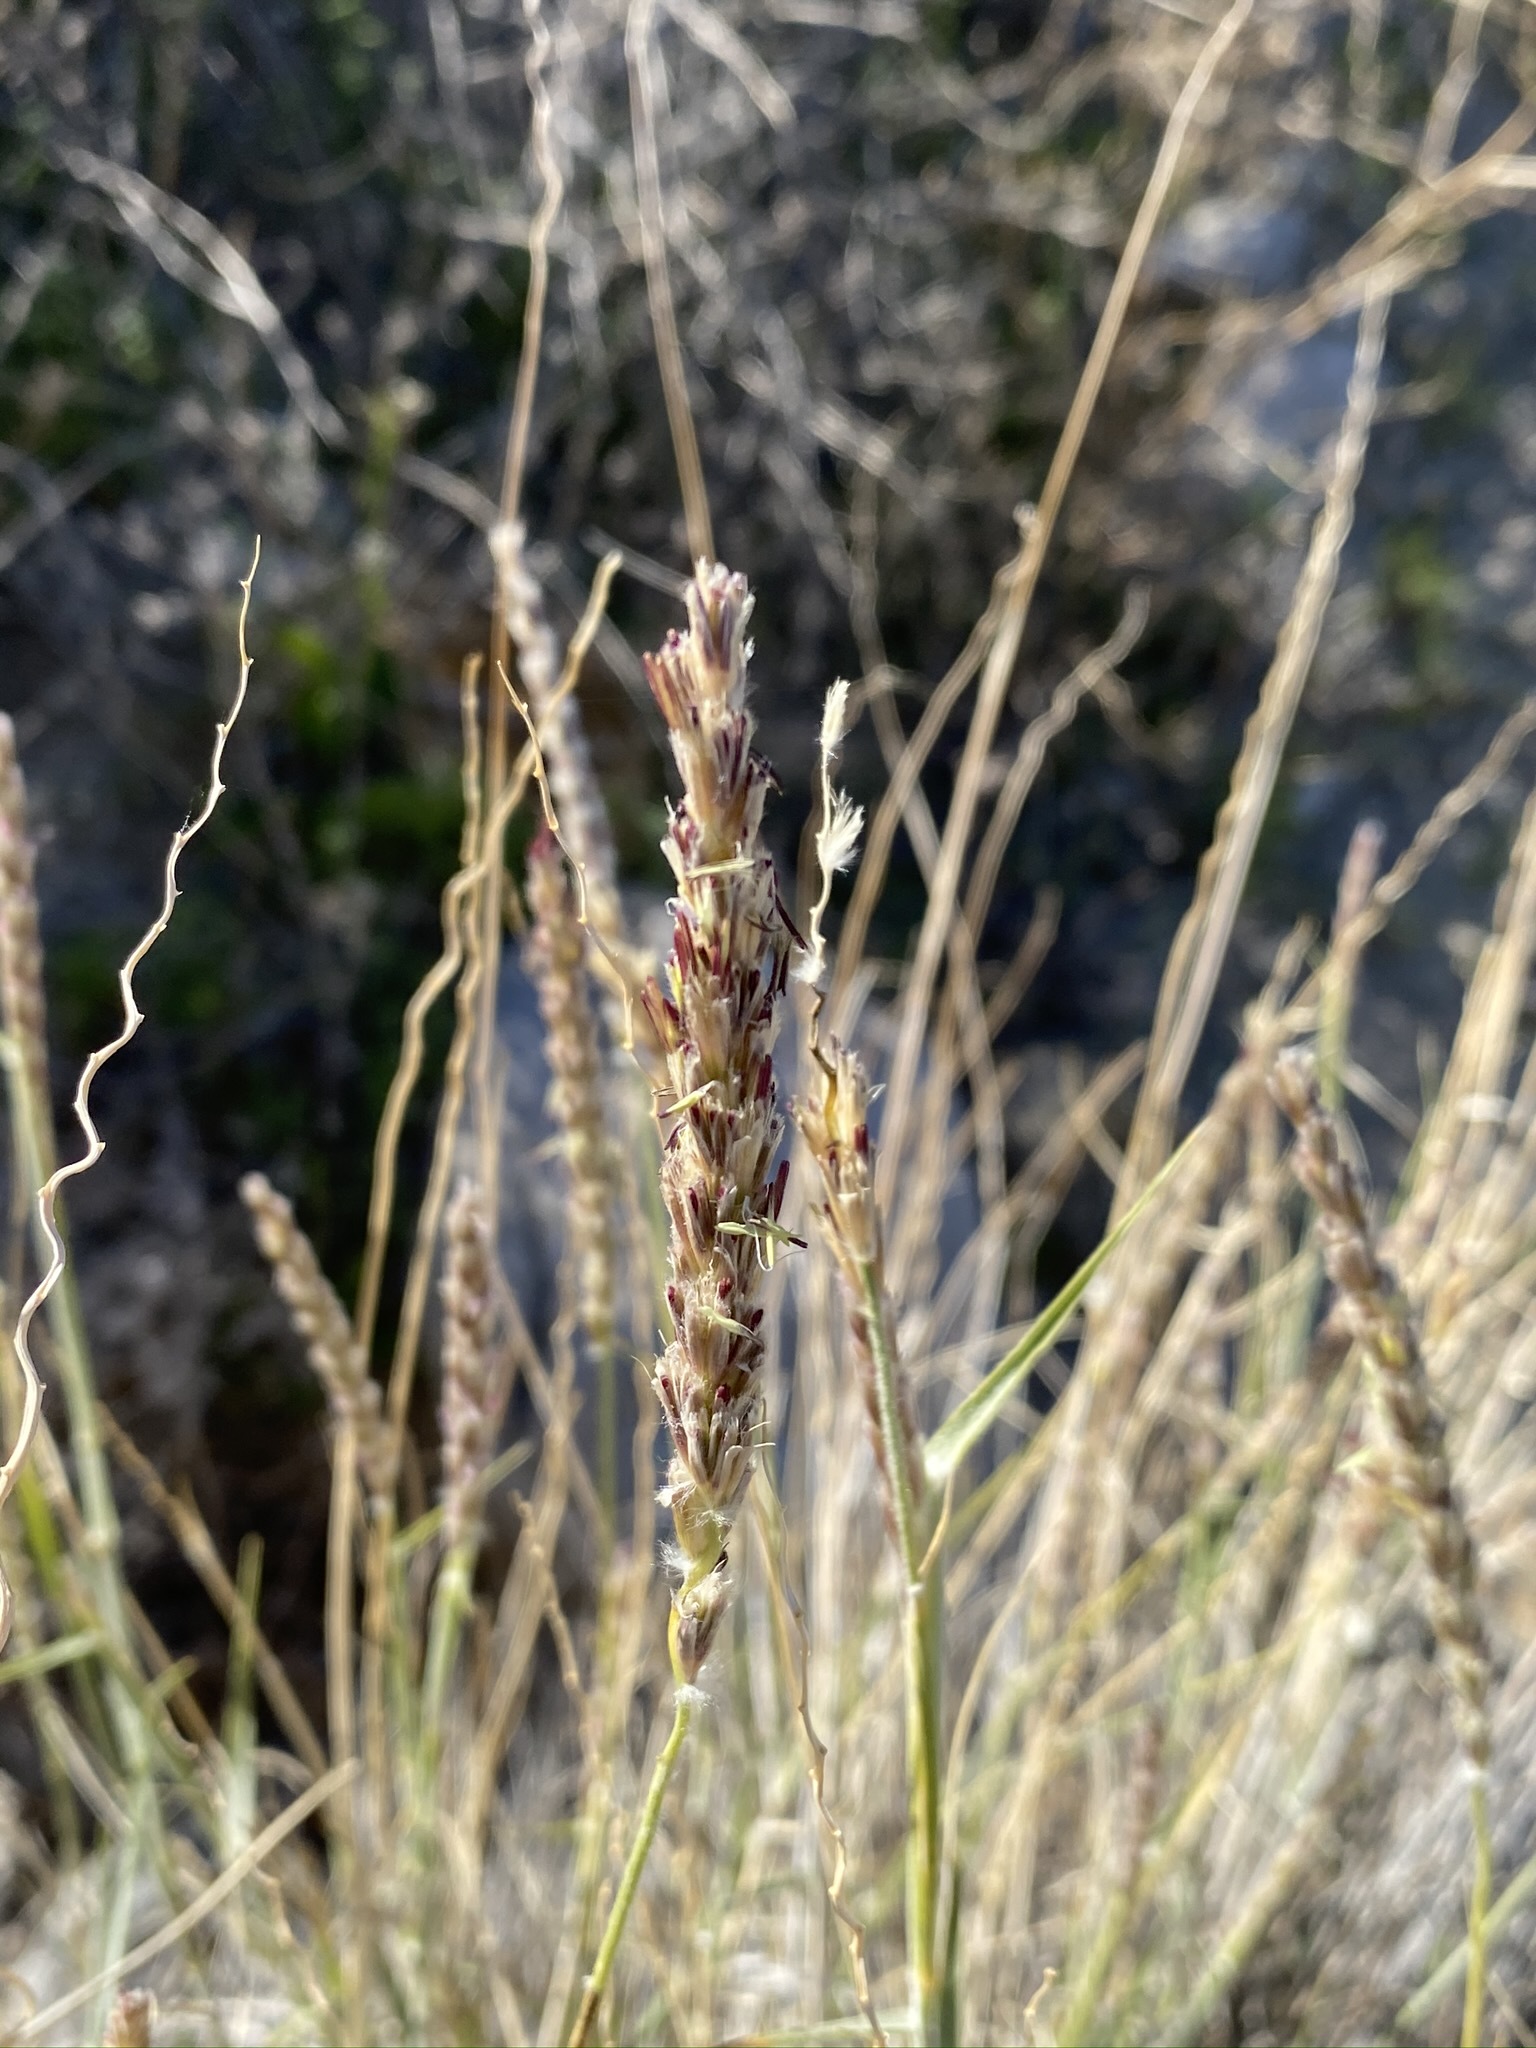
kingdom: Plantae
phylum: Tracheophyta
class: Liliopsida
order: Poales
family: Poaceae
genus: Hilaria
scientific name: Hilaria rigida
